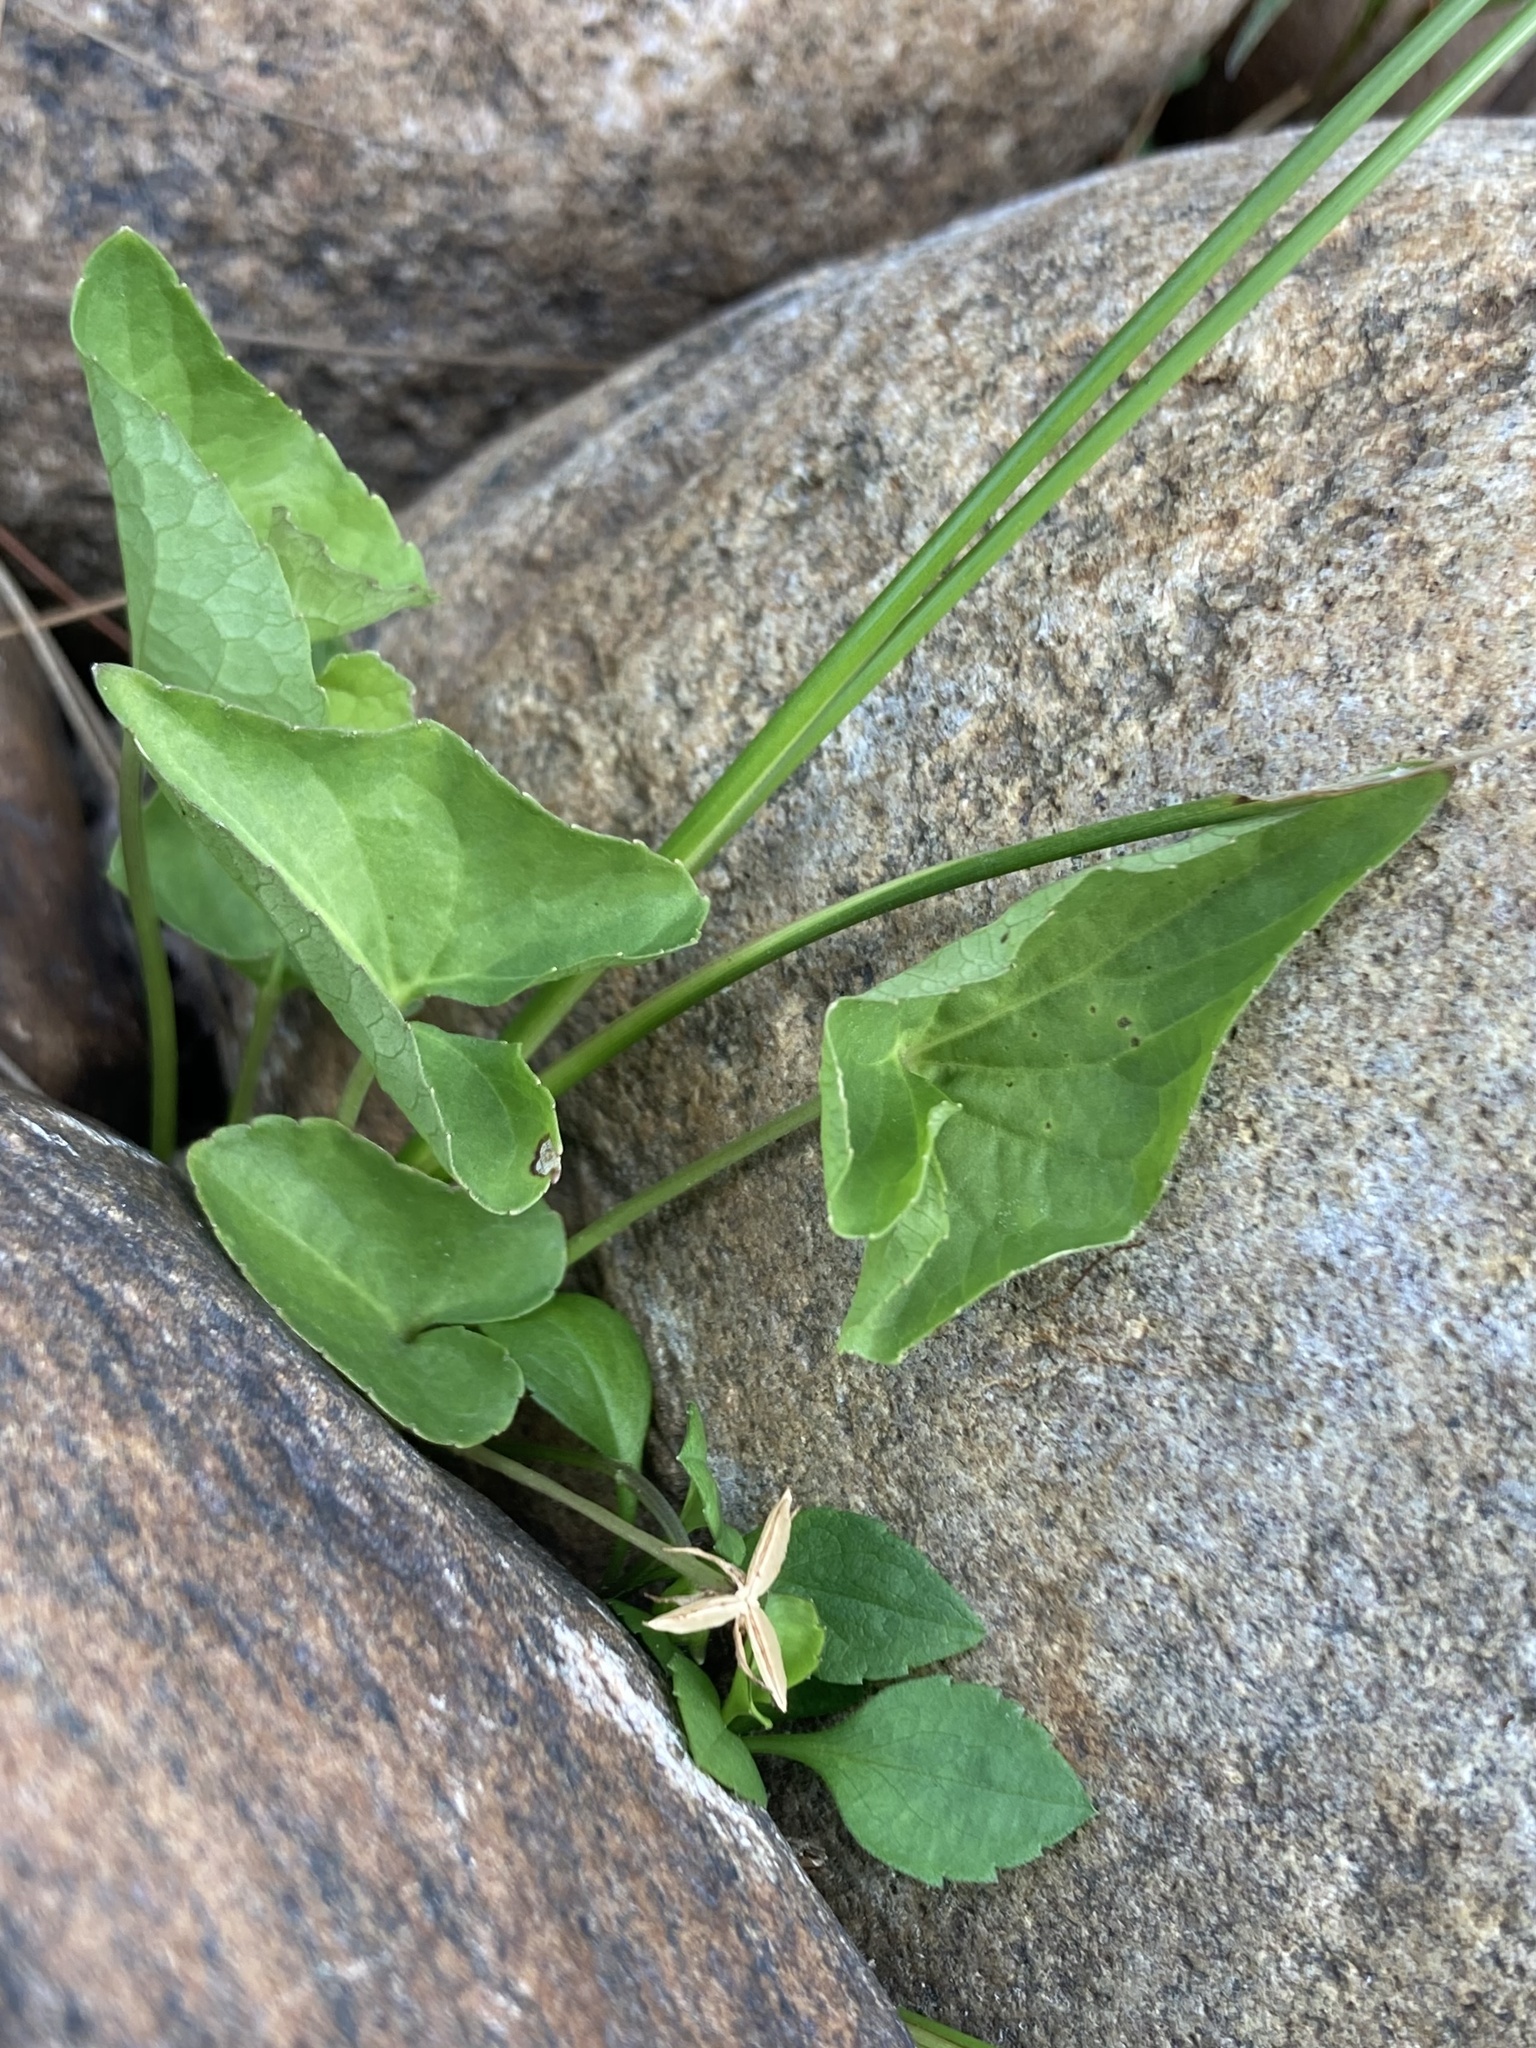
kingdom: Plantae
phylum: Tracheophyta
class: Magnoliopsida
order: Malpighiales
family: Violaceae
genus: Viola
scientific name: Viola novae-angliae
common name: New england blue violet
